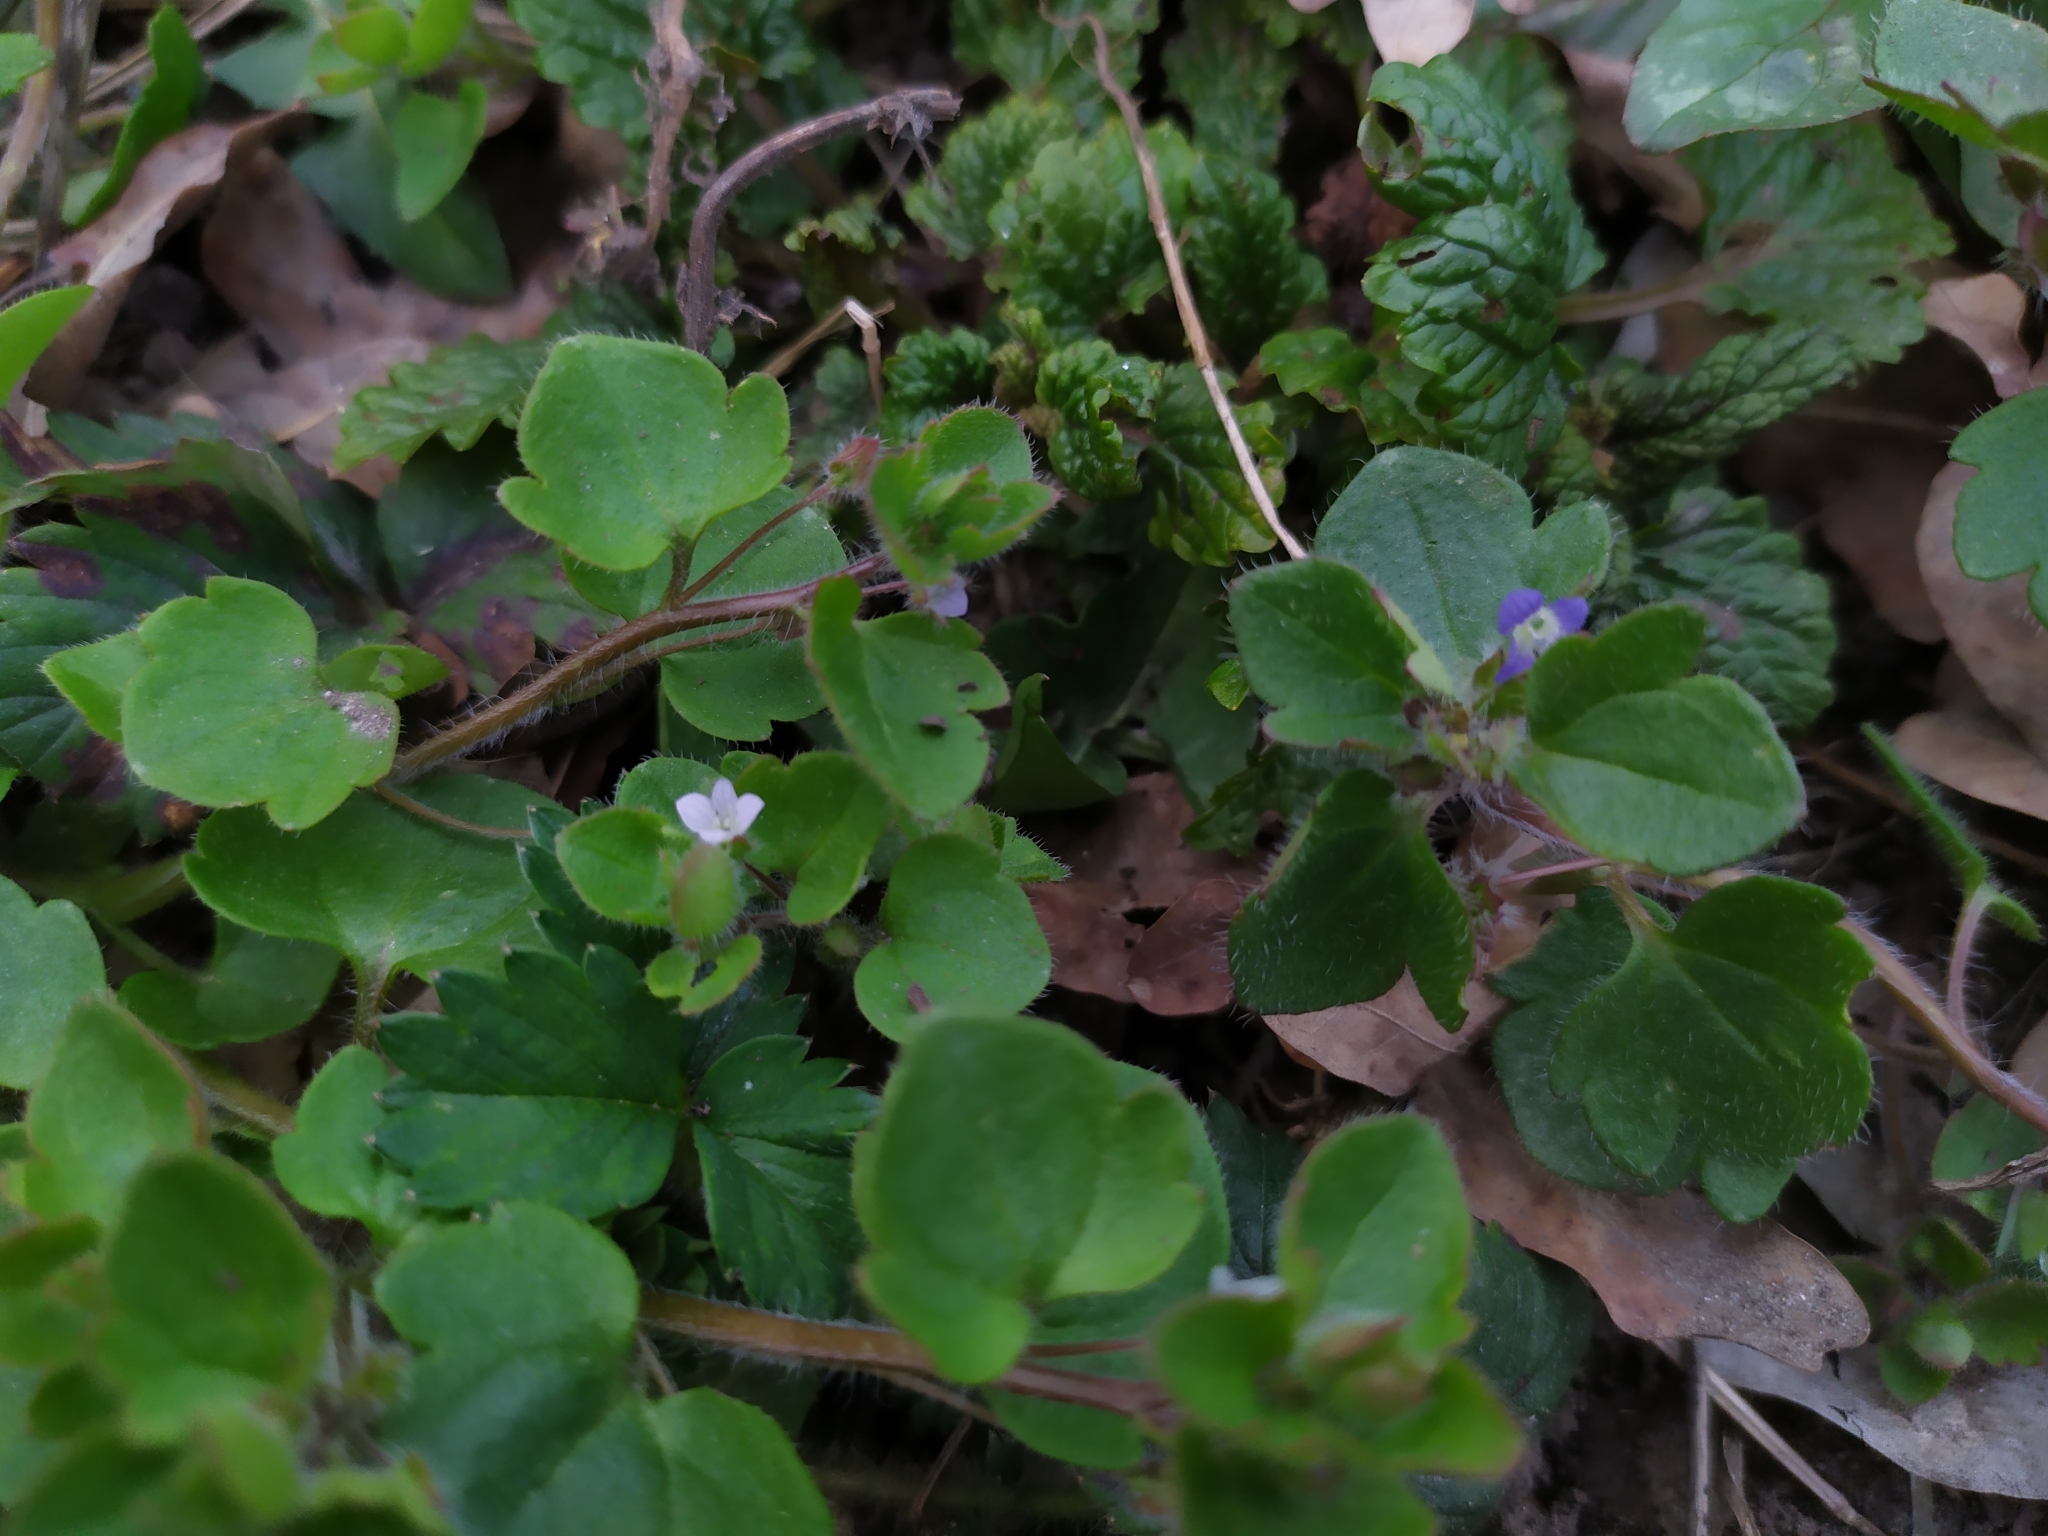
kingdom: Plantae
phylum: Tracheophyta
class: Magnoliopsida
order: Lamiales
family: Plantaginaceae
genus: Veronica
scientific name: Veronica sublobata
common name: False ivy-leaved speedwell
